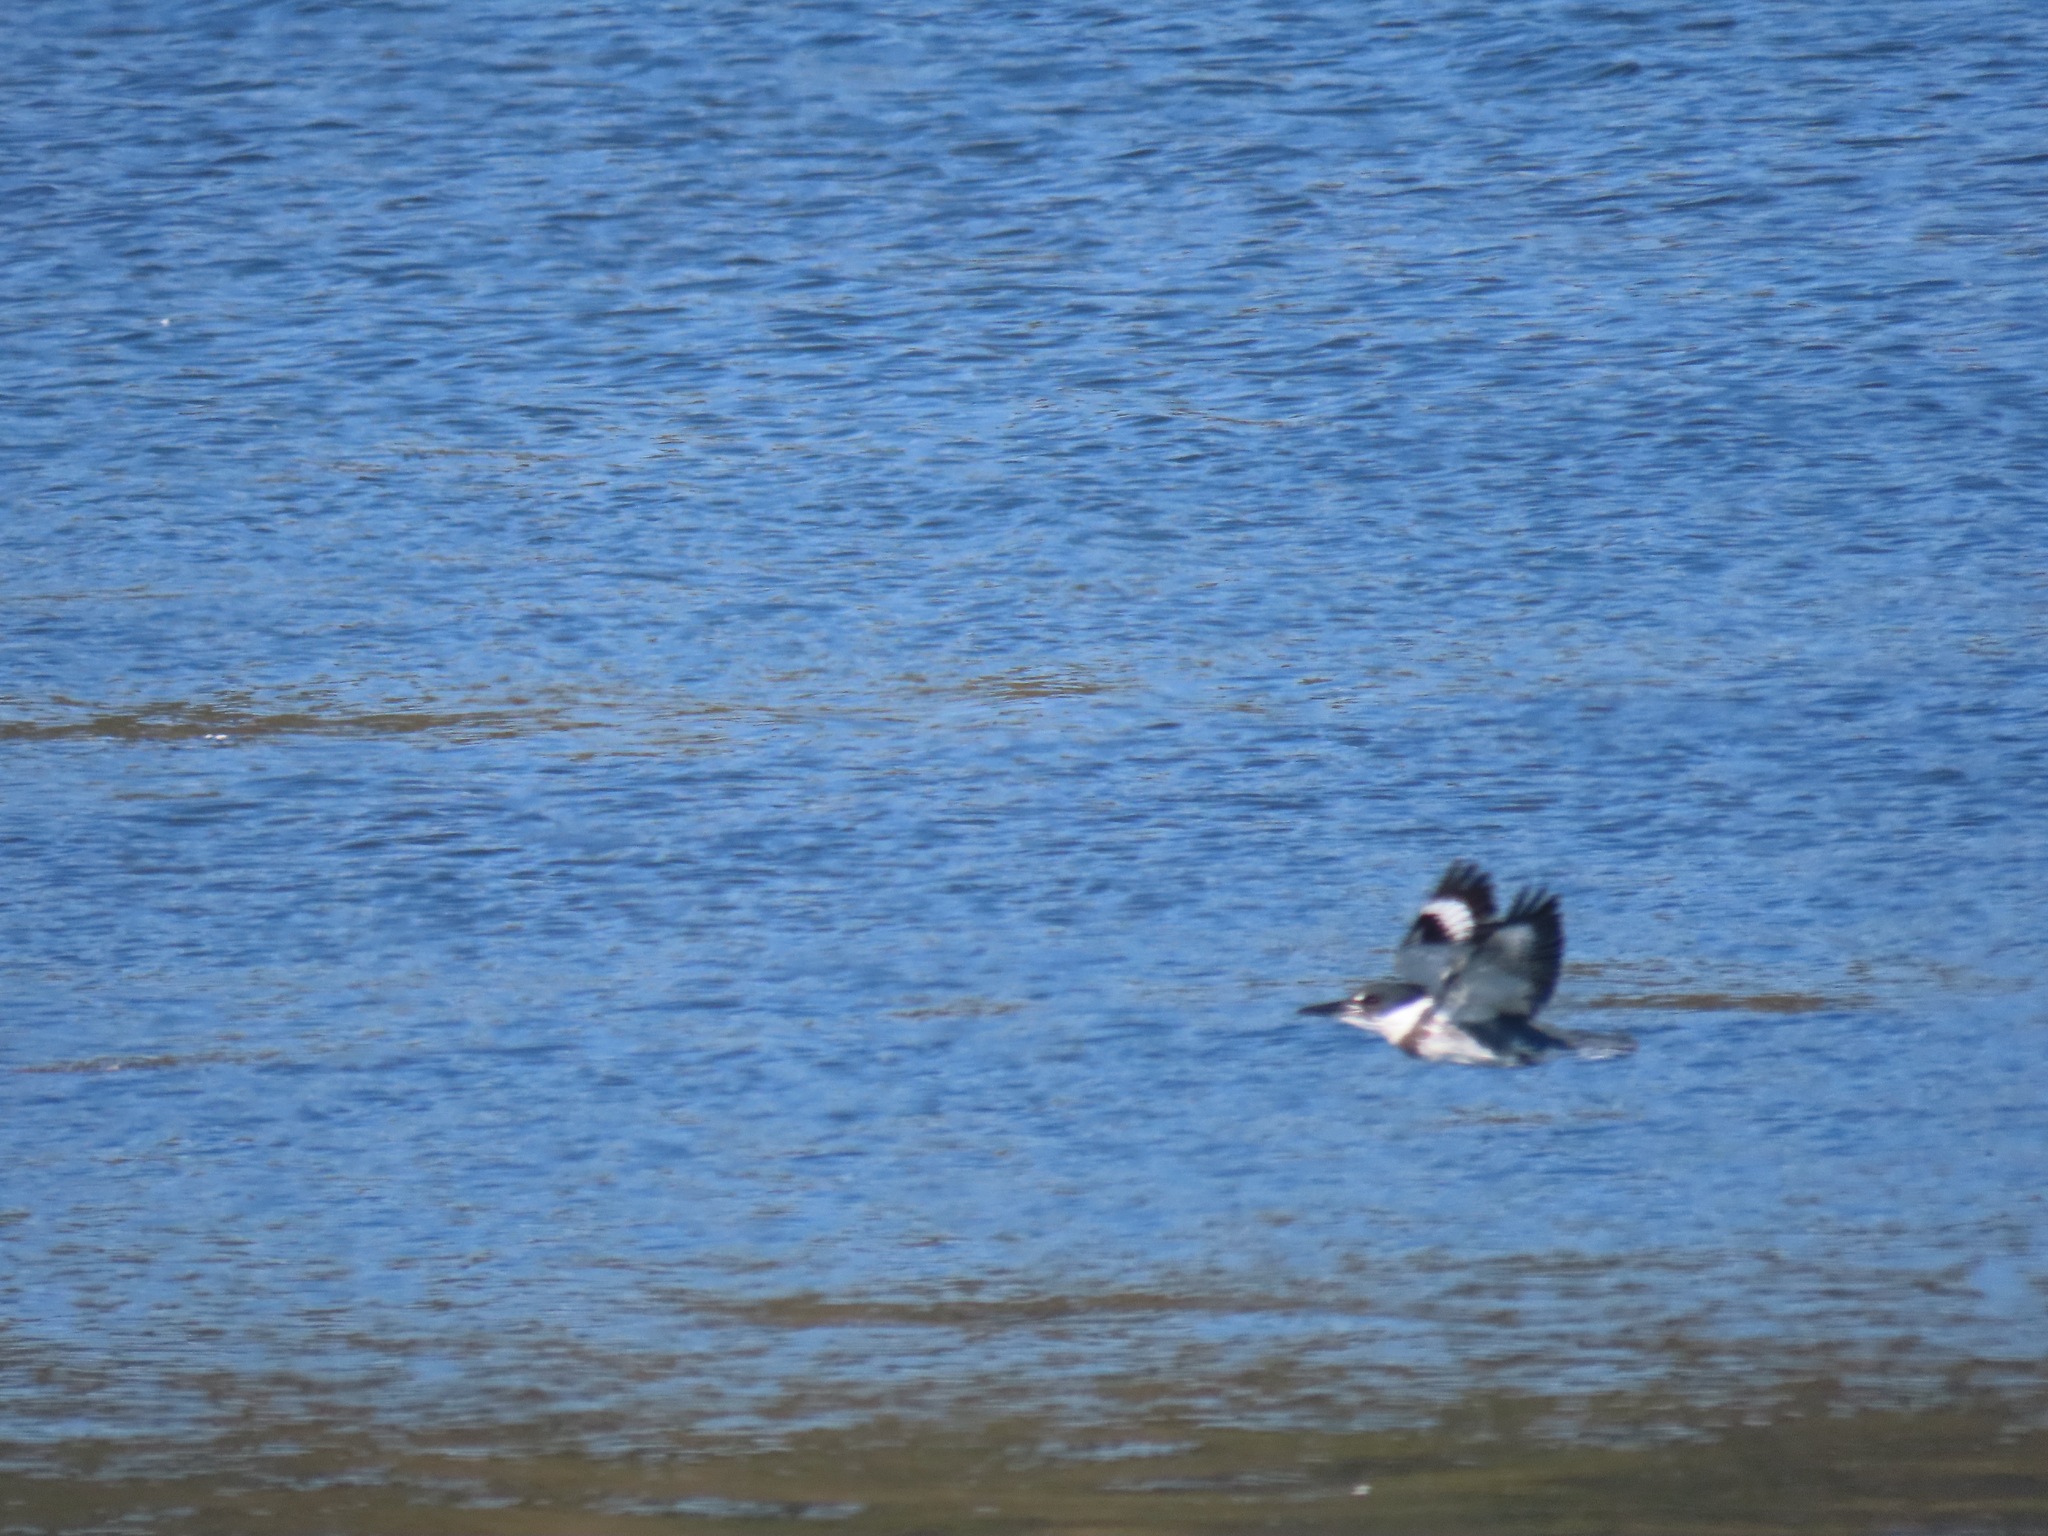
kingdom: Animalia
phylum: Chordata
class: Aves
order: Coraciiformes
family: Alcedinidae
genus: Megaceryle
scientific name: Megaceryle alcyon
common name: Belted kingfisher
